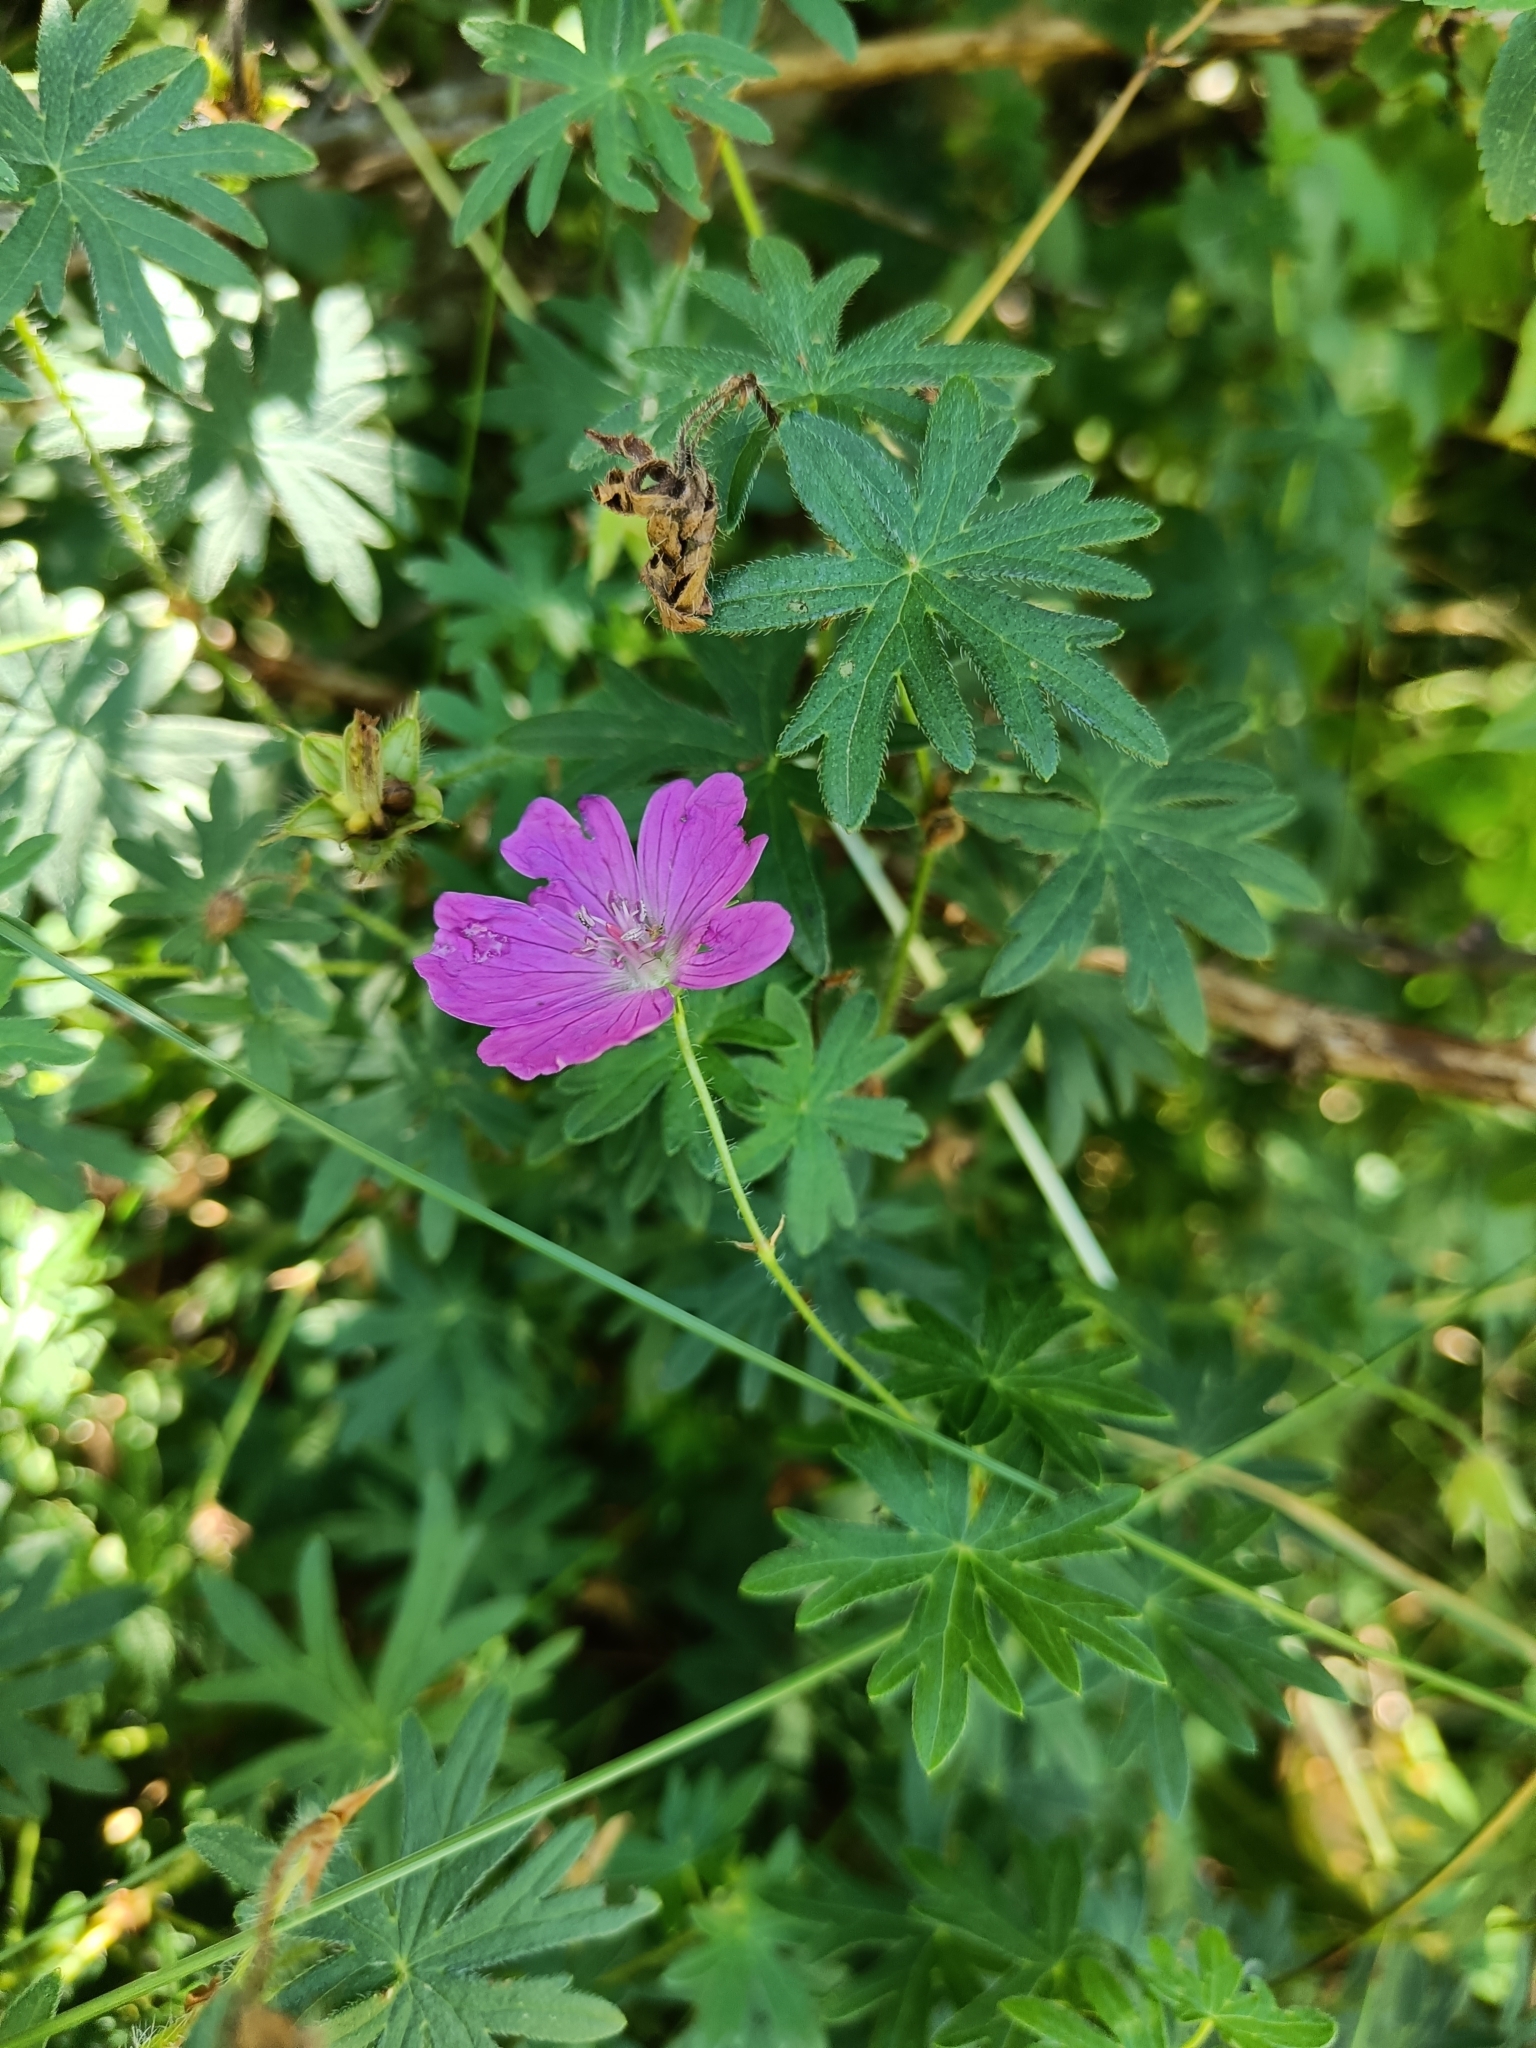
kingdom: Plantae
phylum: Tracheophyta
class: Magnoliopsida
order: Geraniales
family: Geraniaceae
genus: Geranium
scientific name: Geranium sanguineum
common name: Bloody crane's-bill
